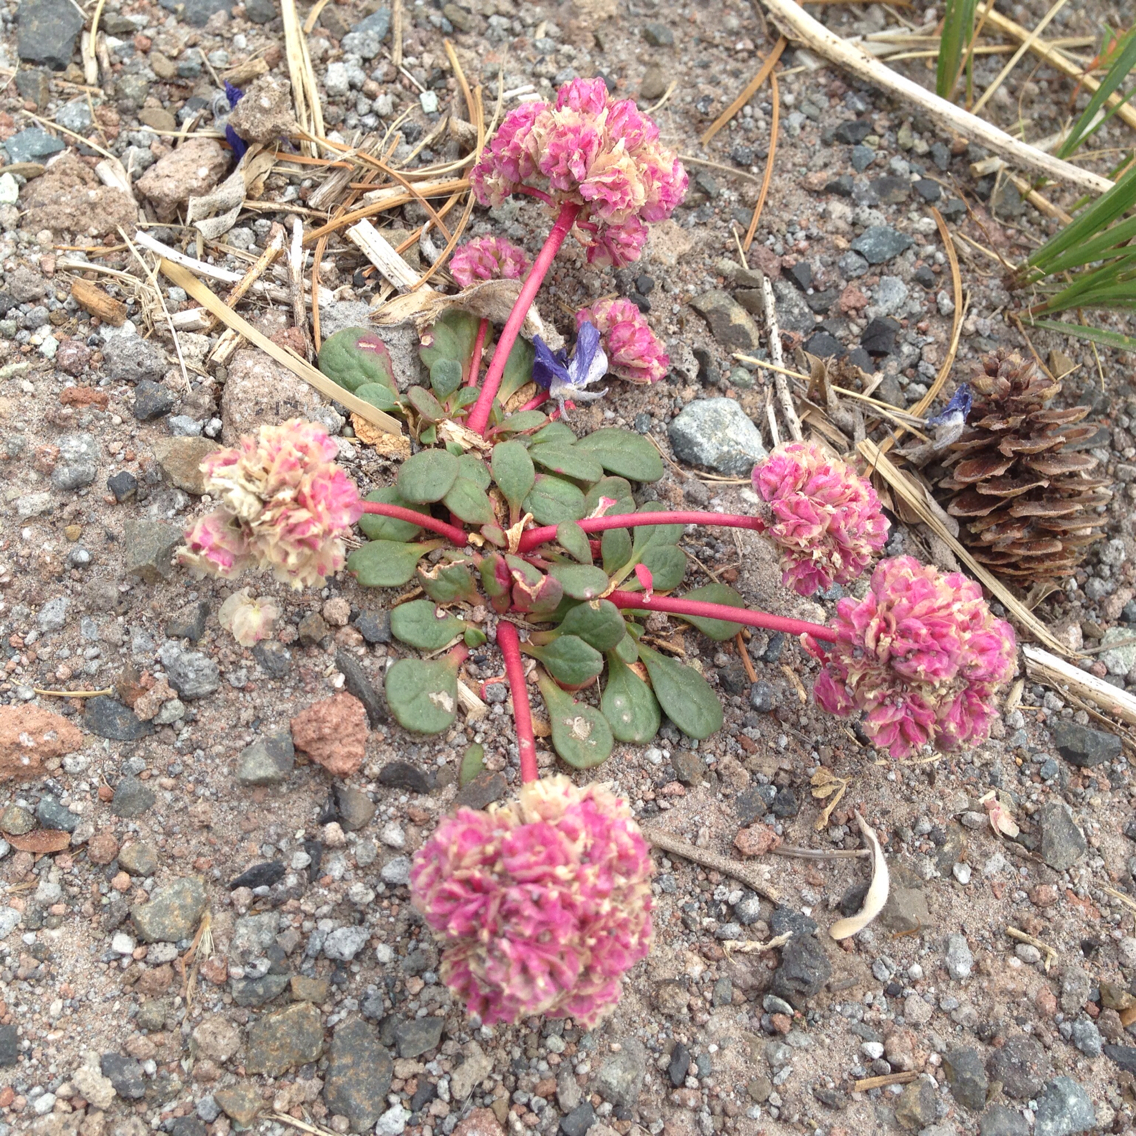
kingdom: Plantae
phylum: Tracheophyta
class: Magnoliopsida
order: Caryophyllales
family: Montiaceae
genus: Calyptridium
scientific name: Calyptridium umbellatum
